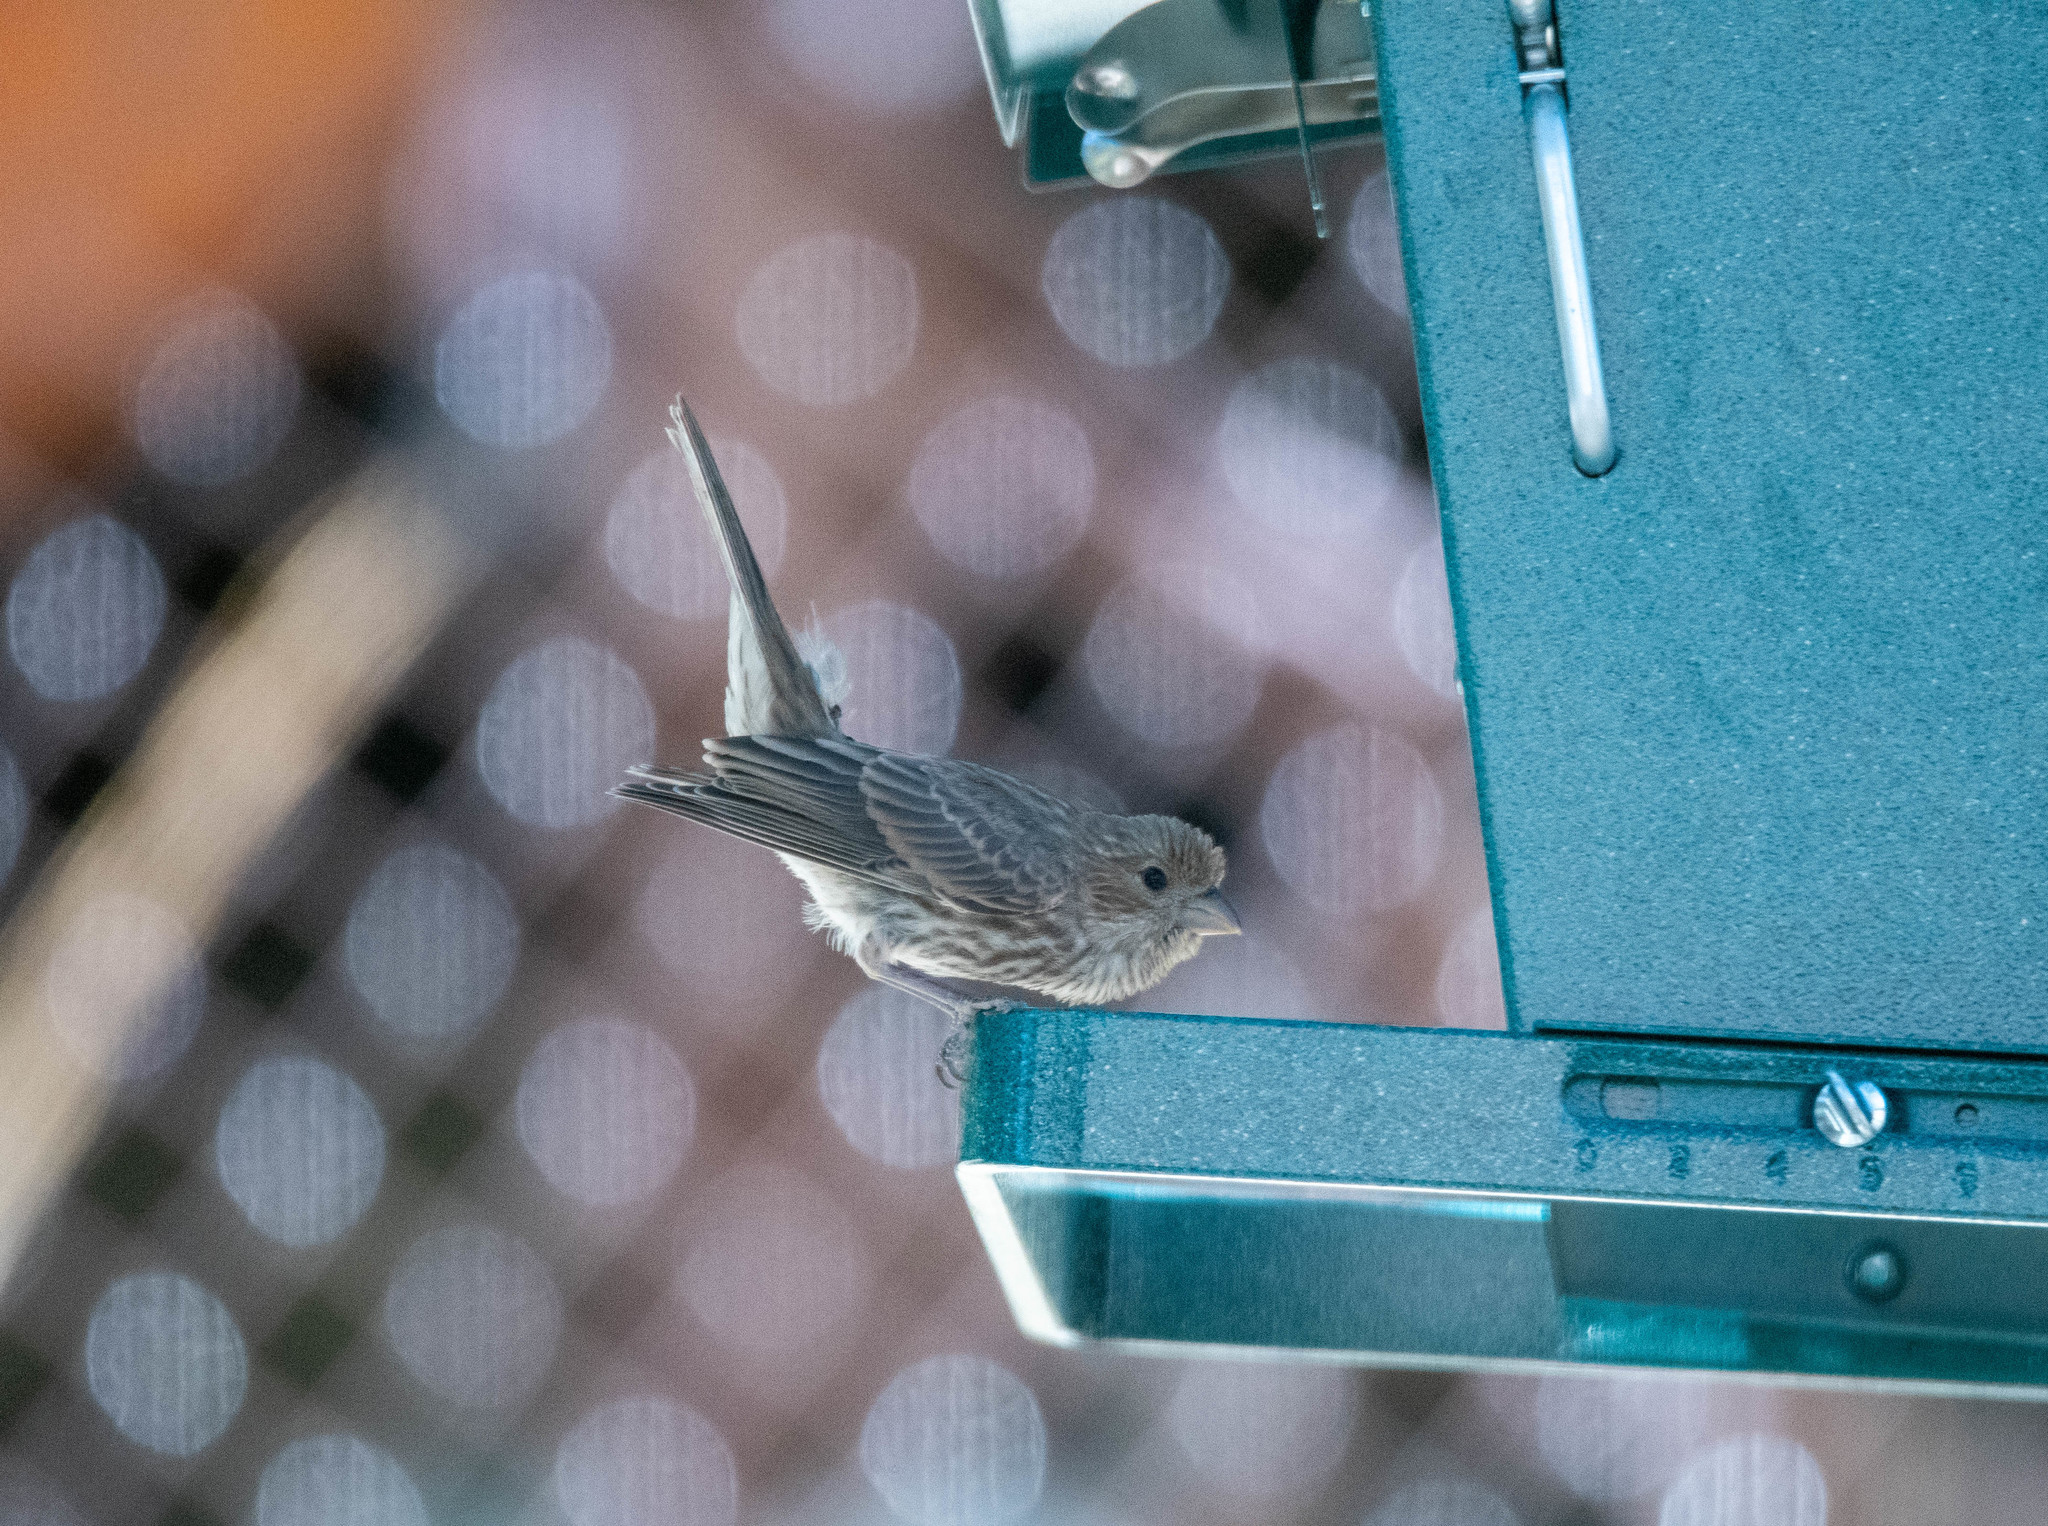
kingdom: Animalia
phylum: Chordata
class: Aves
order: Passeriformes
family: Fringillidae
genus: Haemorhous
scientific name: Haemorhous mexicanus
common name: House finch
